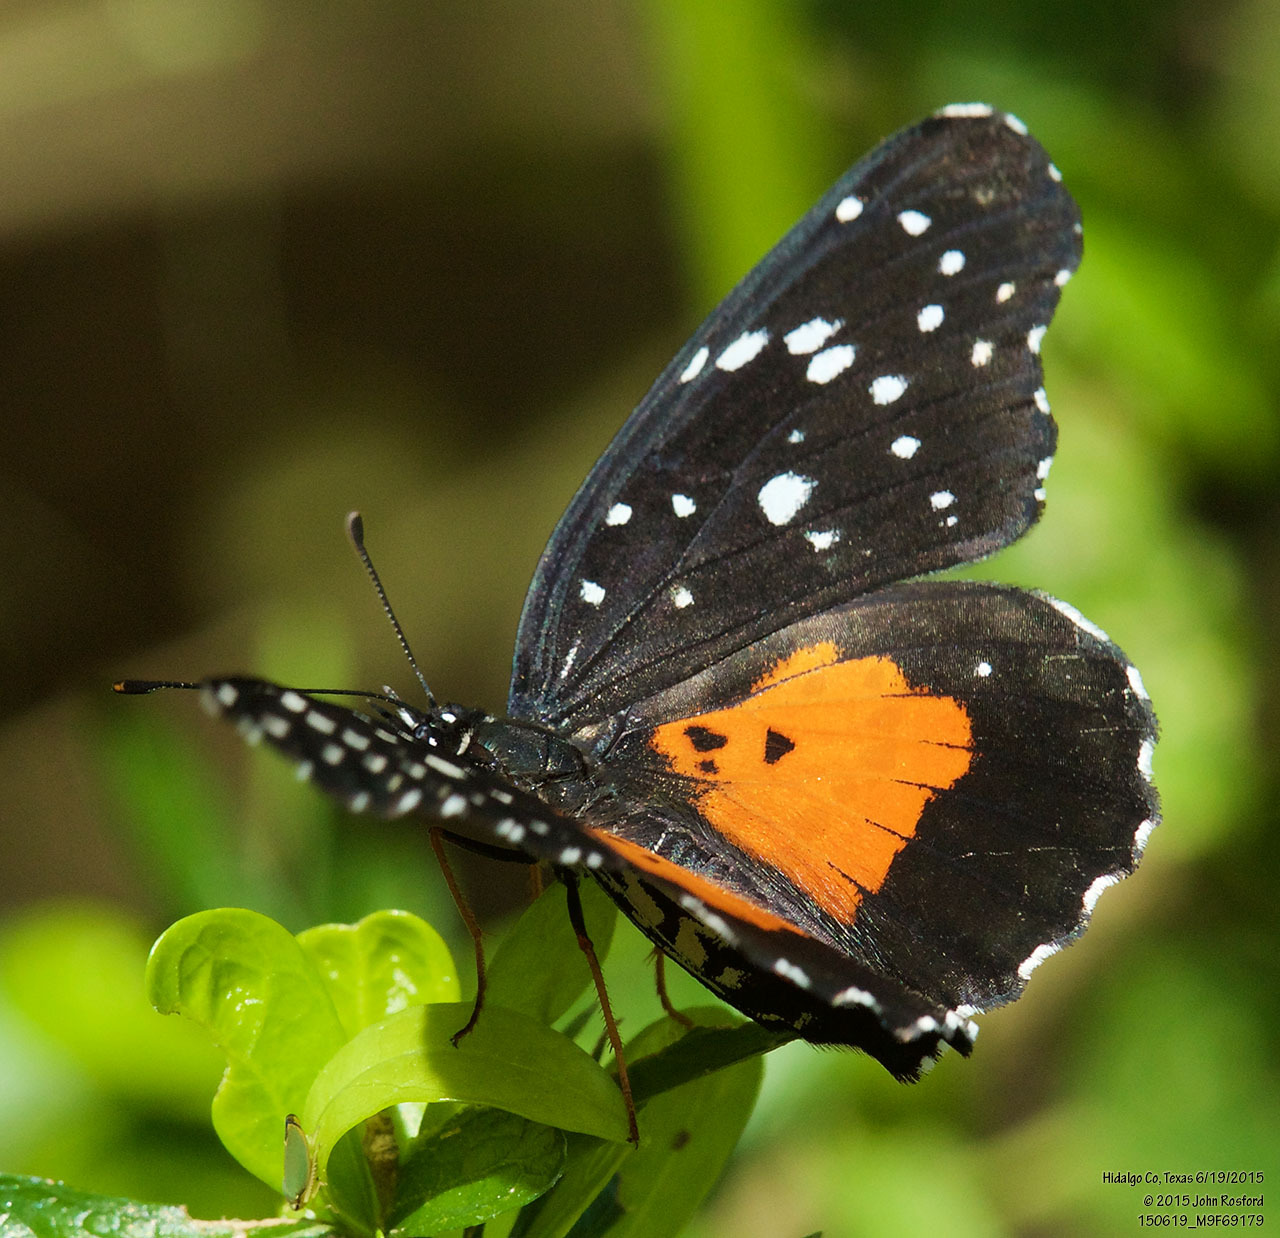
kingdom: Animalia
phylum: Arthropoda
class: Insecta
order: Lepidoptera
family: Nymphalidae
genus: Chlosyne
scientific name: Chlosyne janais
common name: Crimson patch
